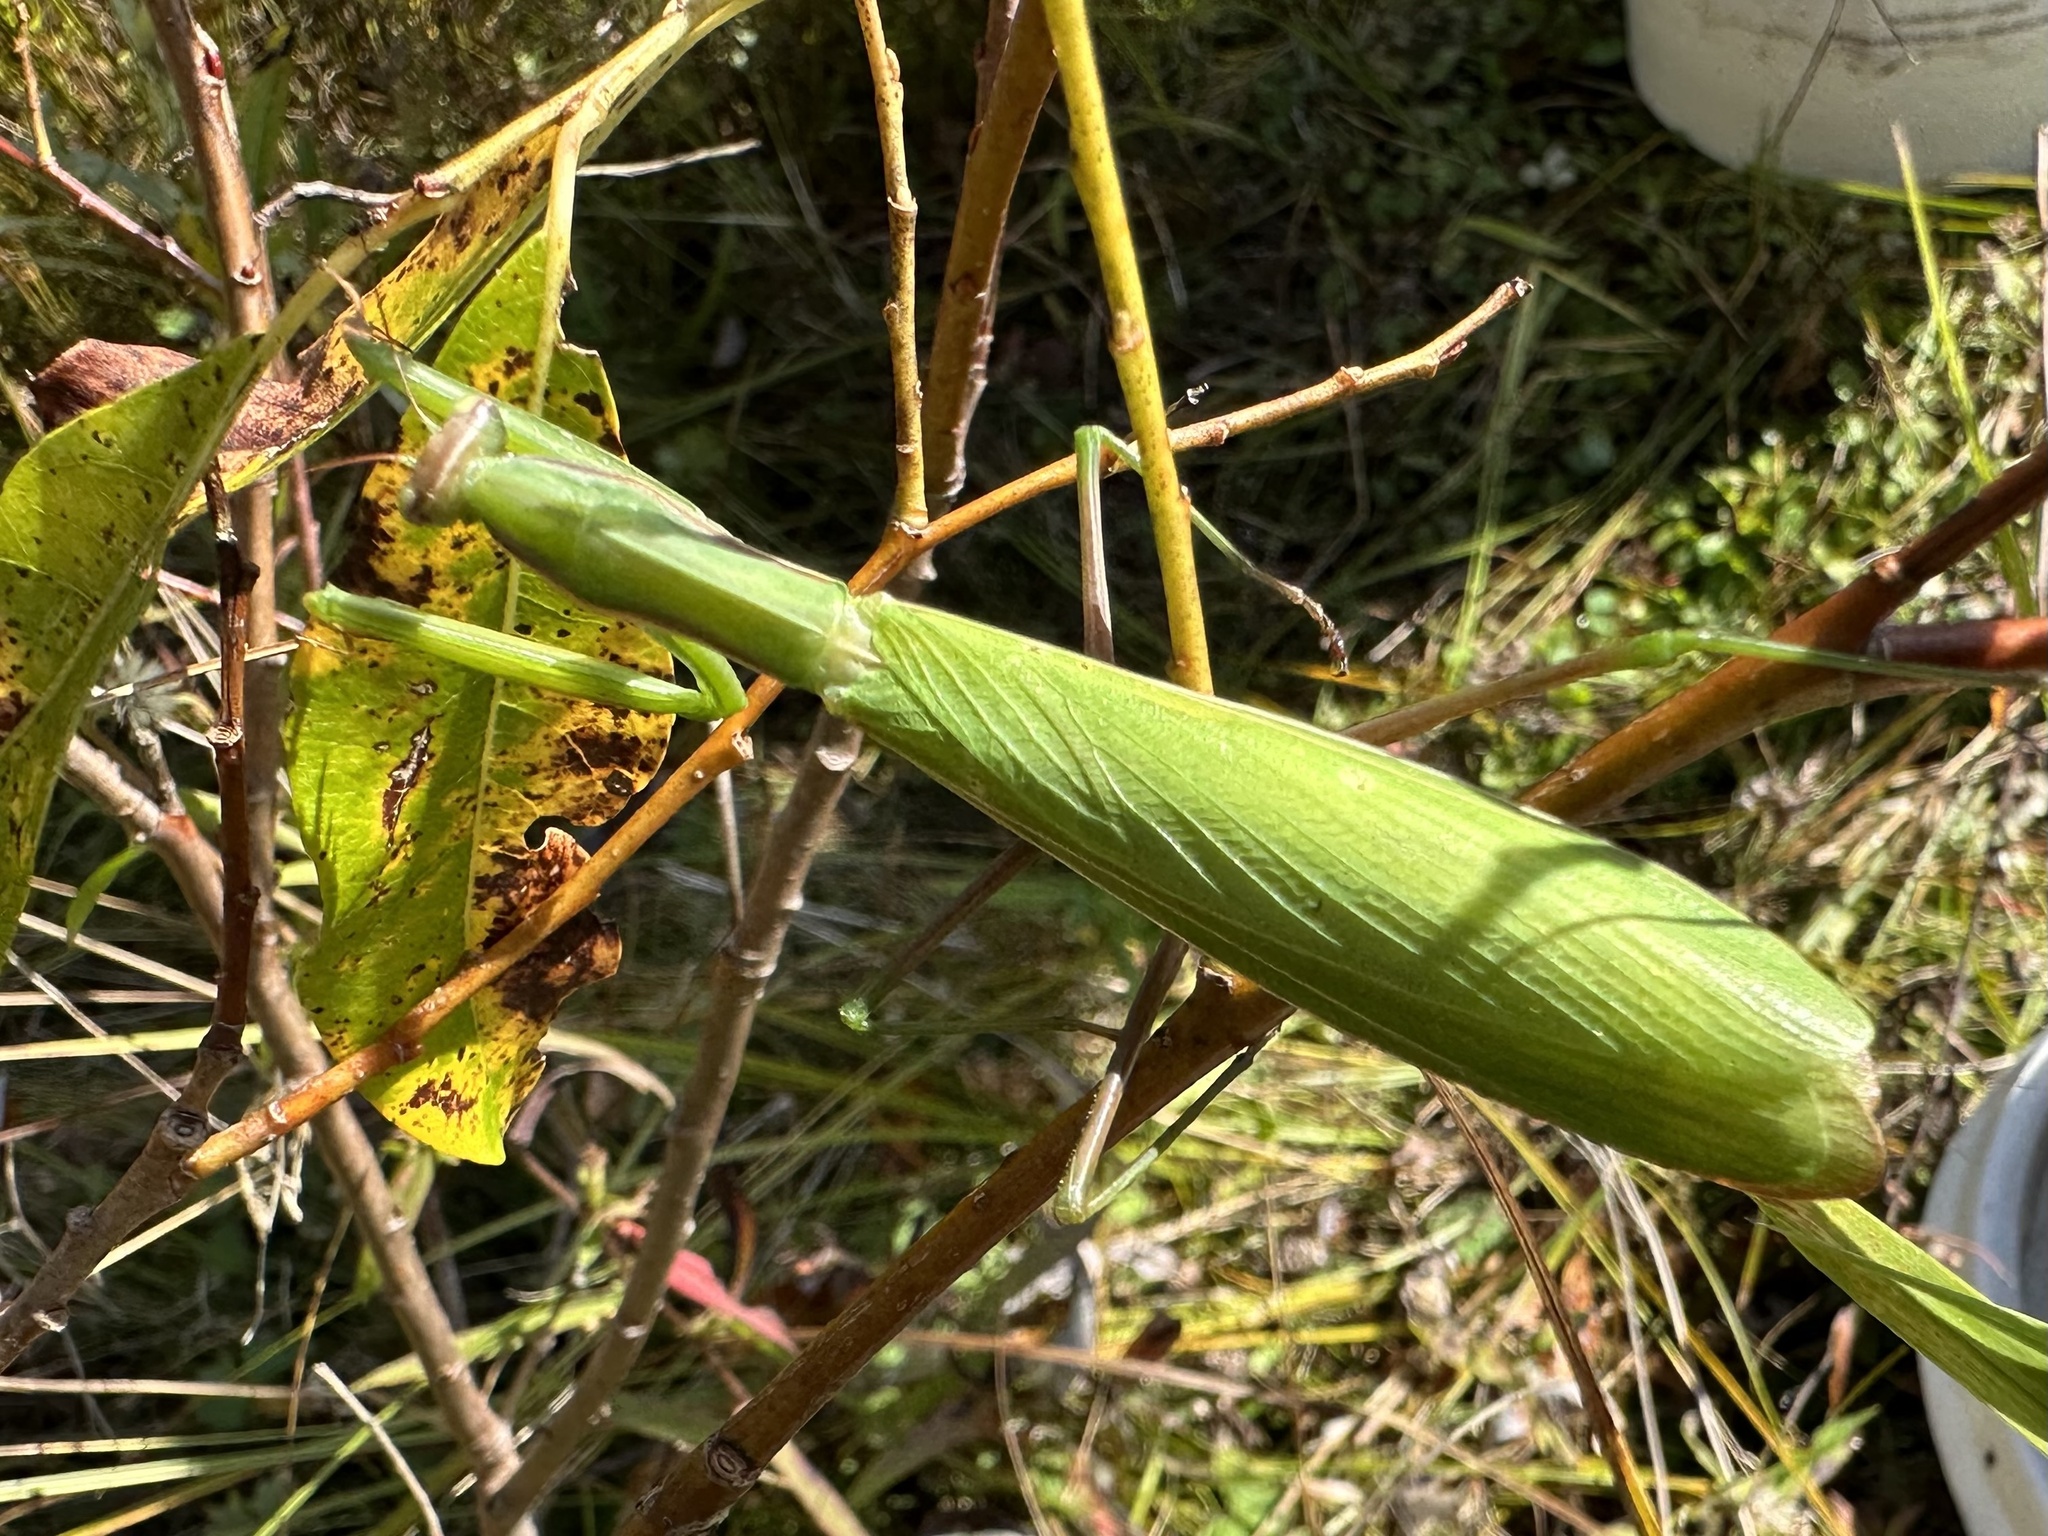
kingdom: Animalia
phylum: Arthropoda
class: Insecta
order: Mantodea
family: Mantidae
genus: Mantis
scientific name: Mantis religiosa
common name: Praying mantis
